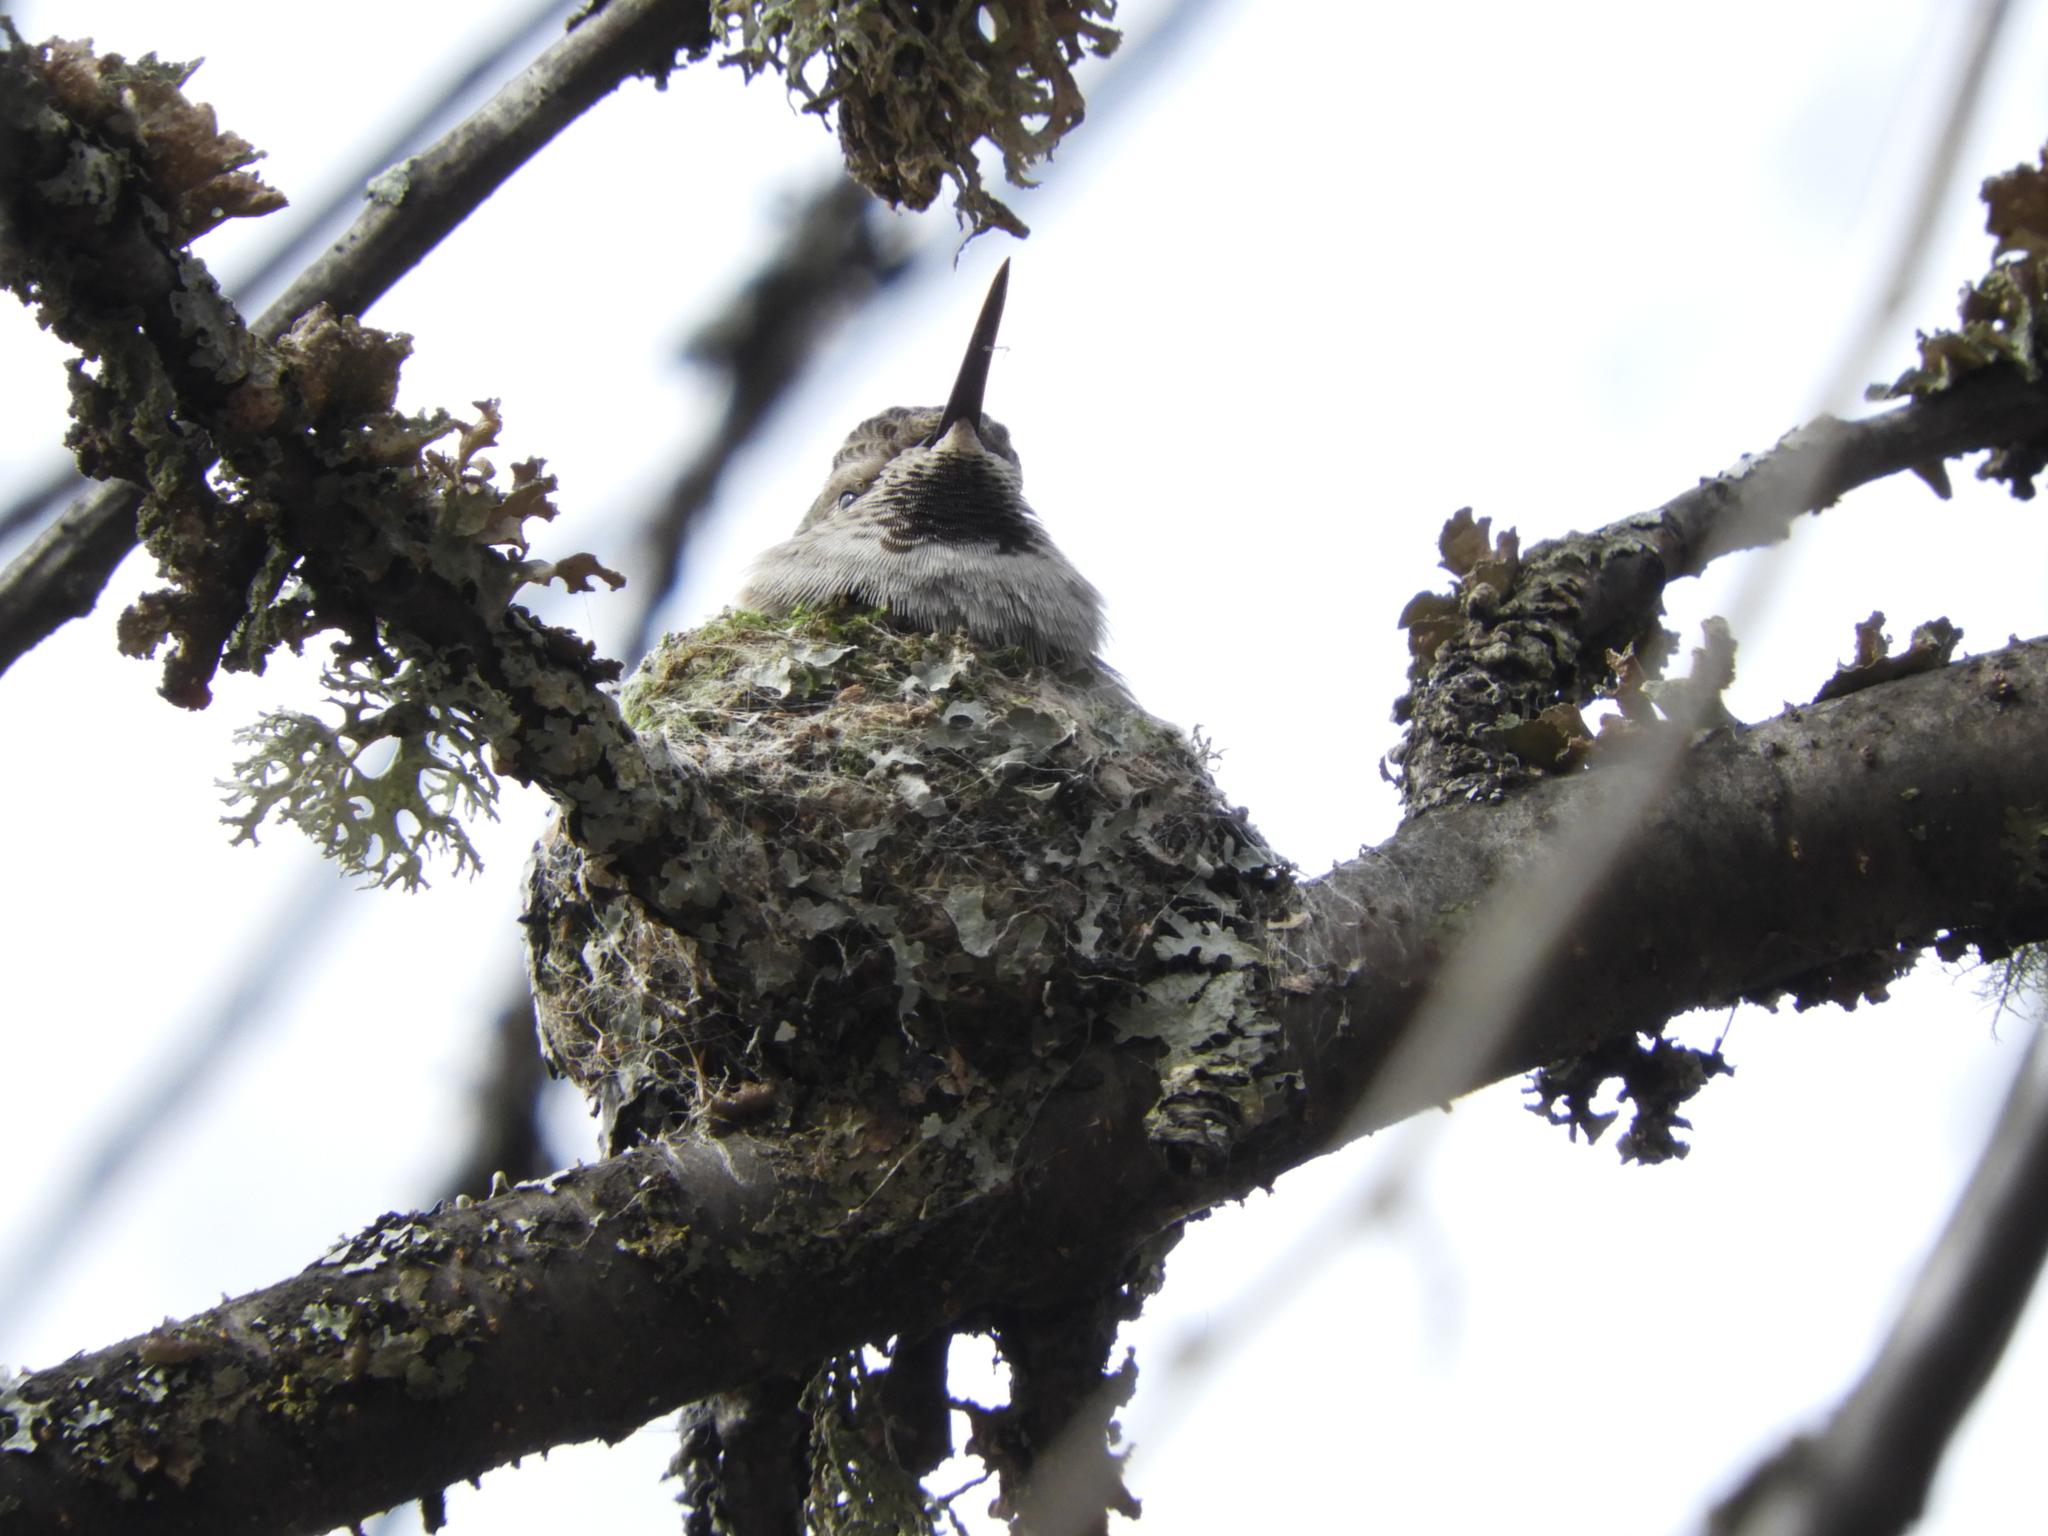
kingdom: Animalia
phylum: Chordata
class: Aves
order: Apodiformes
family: Trochilidae
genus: Calypte
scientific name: Calypte anna
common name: Anna's hummingbird
